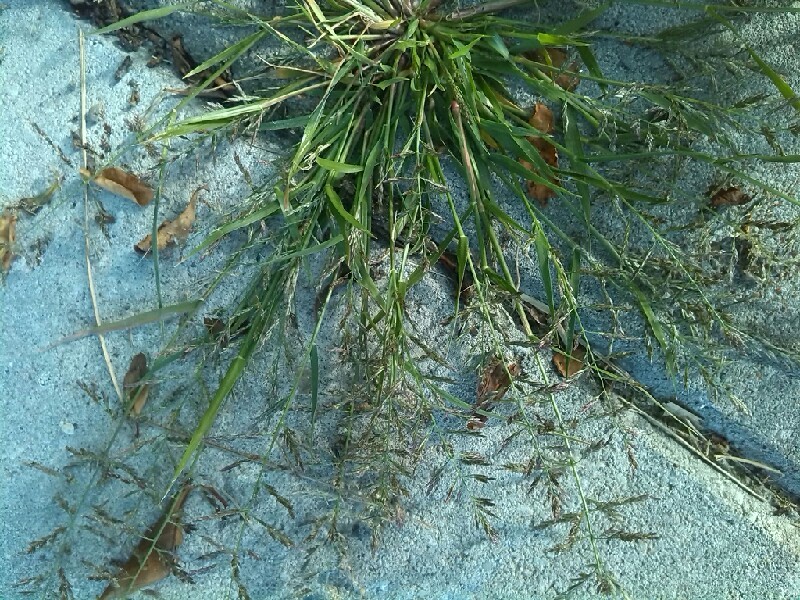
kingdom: Plantae
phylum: Tracheophyta
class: Liliopsida
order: Poales
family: Poaceae
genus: Eragrostis
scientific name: Eragrostis pilosa
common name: Indian lovegrass
